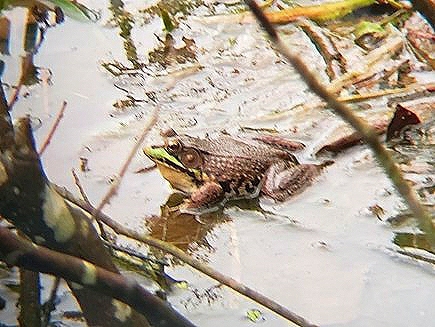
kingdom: Animalia
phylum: Chordata
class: Amphibia
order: Anura
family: Ranidae
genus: Lithobates
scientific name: Lithobates clamitans
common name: Green frog
